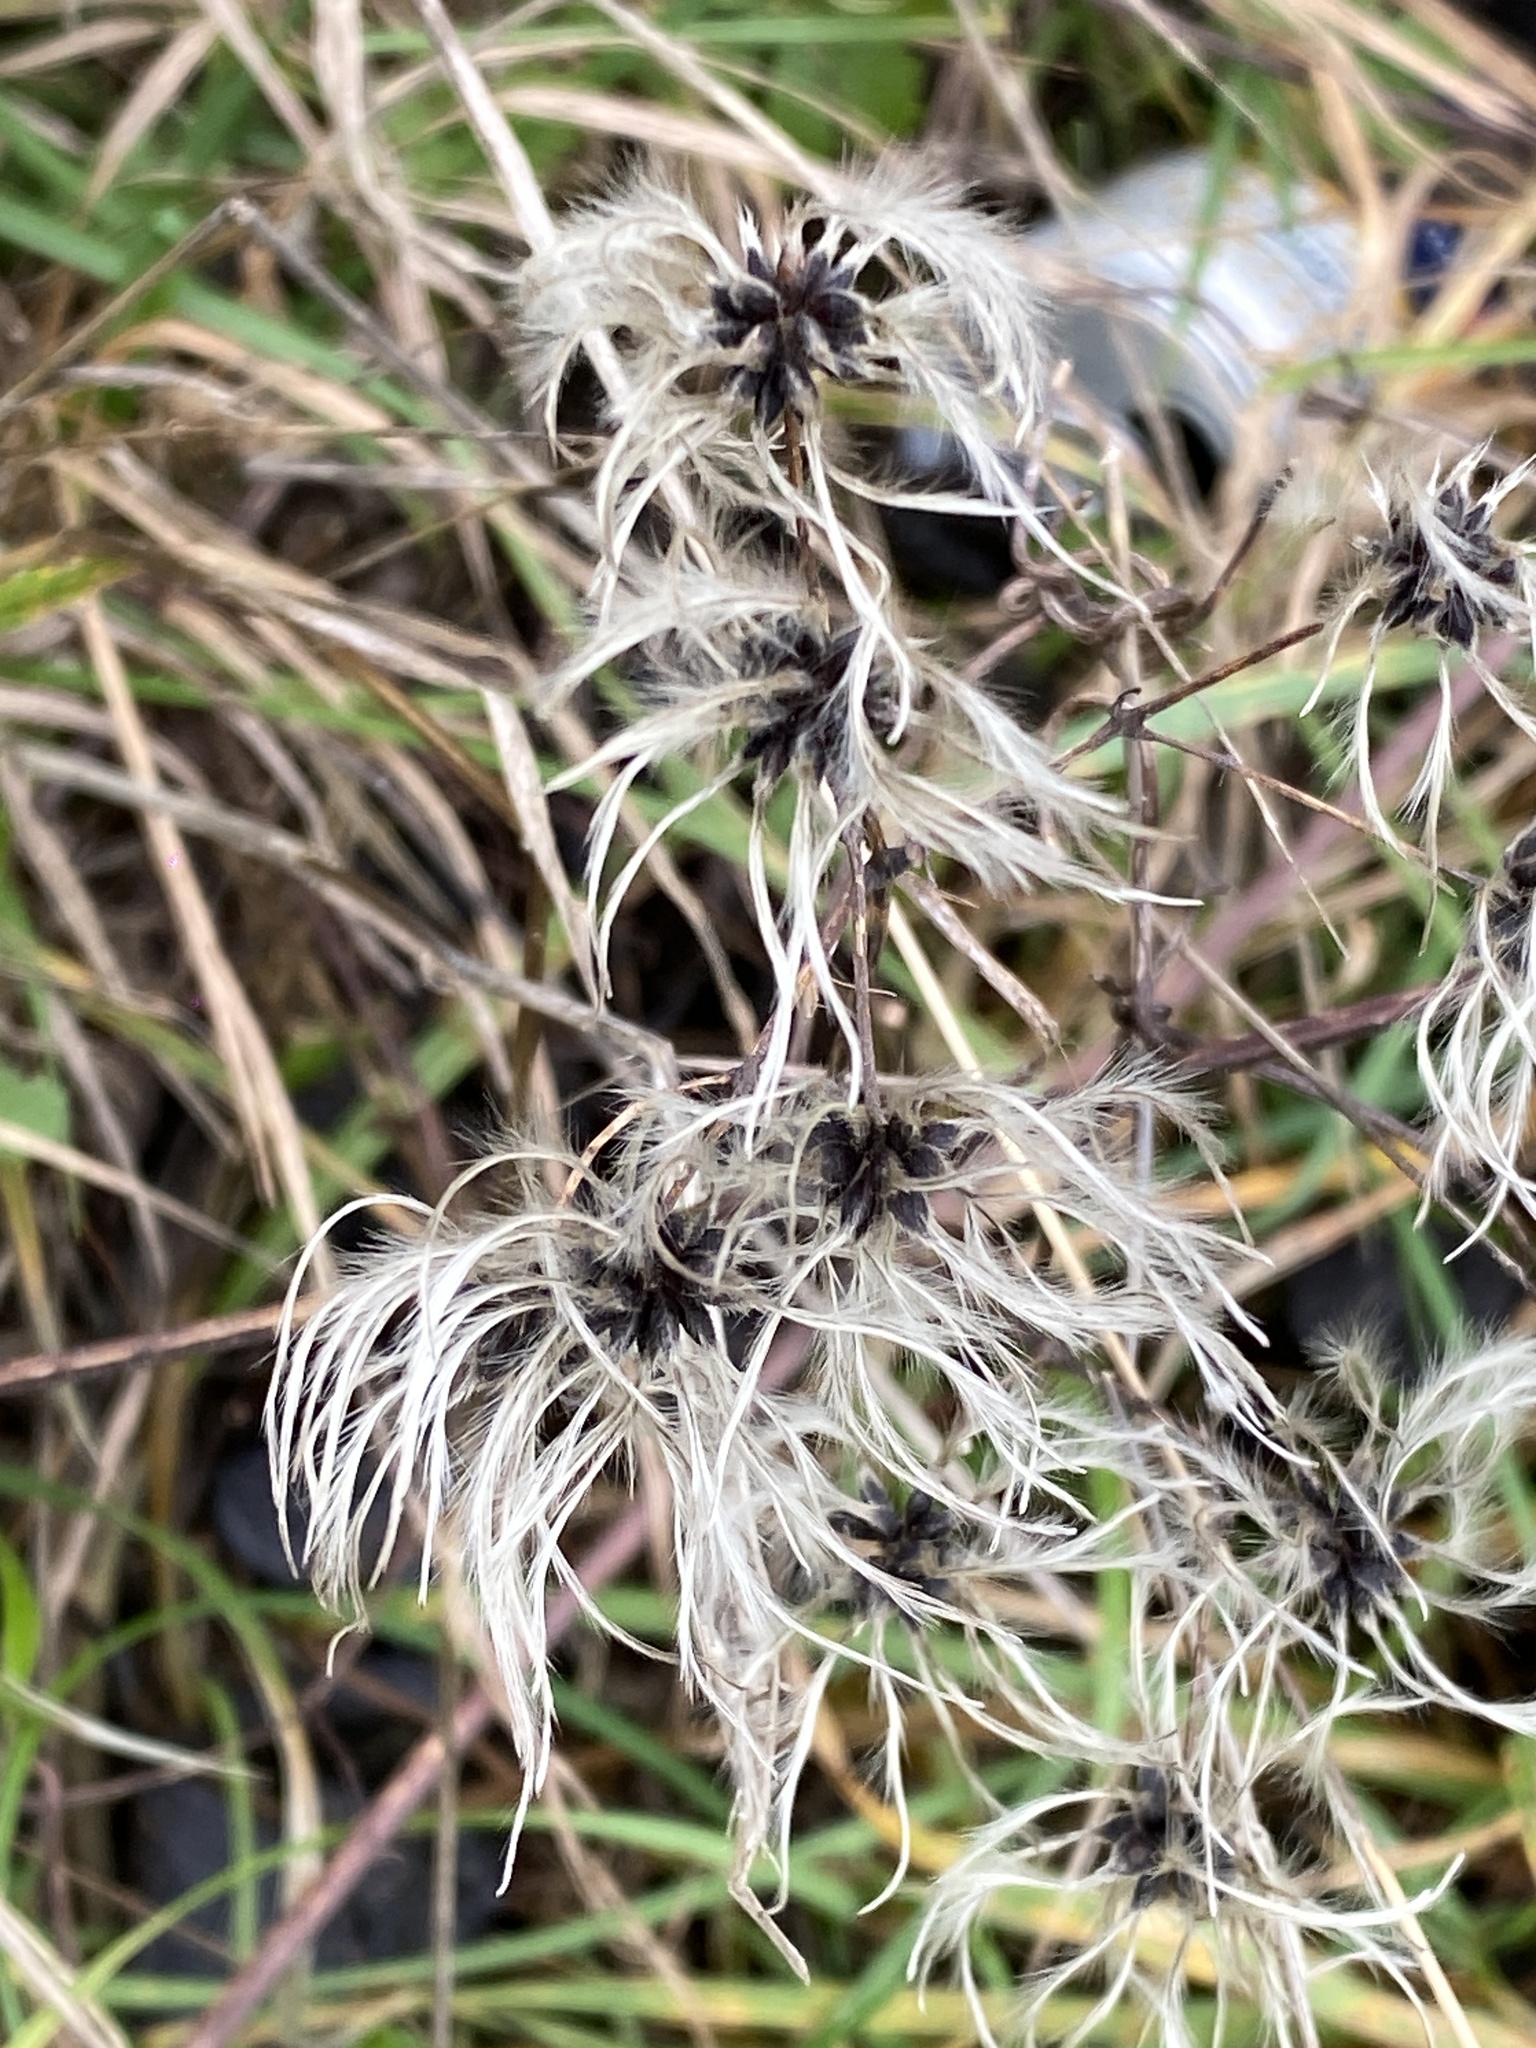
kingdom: Plantae
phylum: Tracheophyta
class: Magnoliopsida
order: Ranunculales
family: Ranunculaceae
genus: Clematis
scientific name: Clematis vitalba
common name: Evergreen clematis
